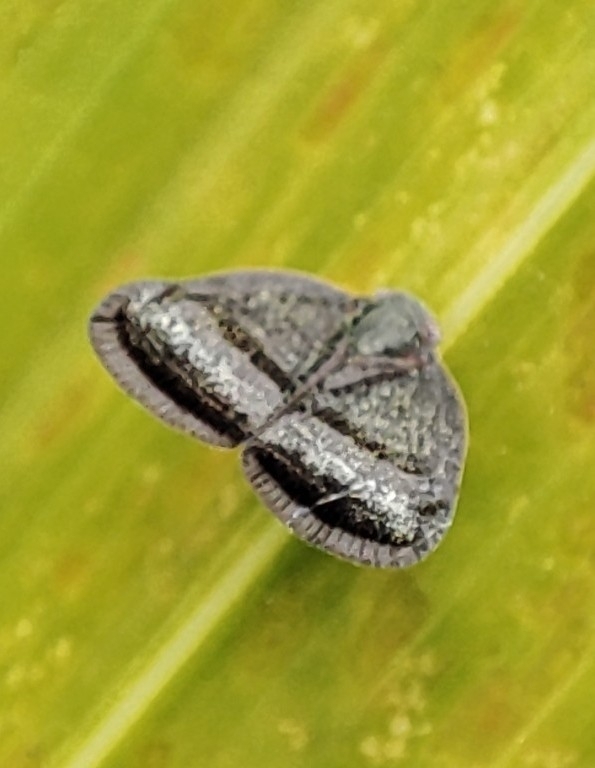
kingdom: Animalia
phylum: Arthropoda
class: Insecta
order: Hemiptera
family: Ricaniidae
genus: Ricania
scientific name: Ricania taeniata
